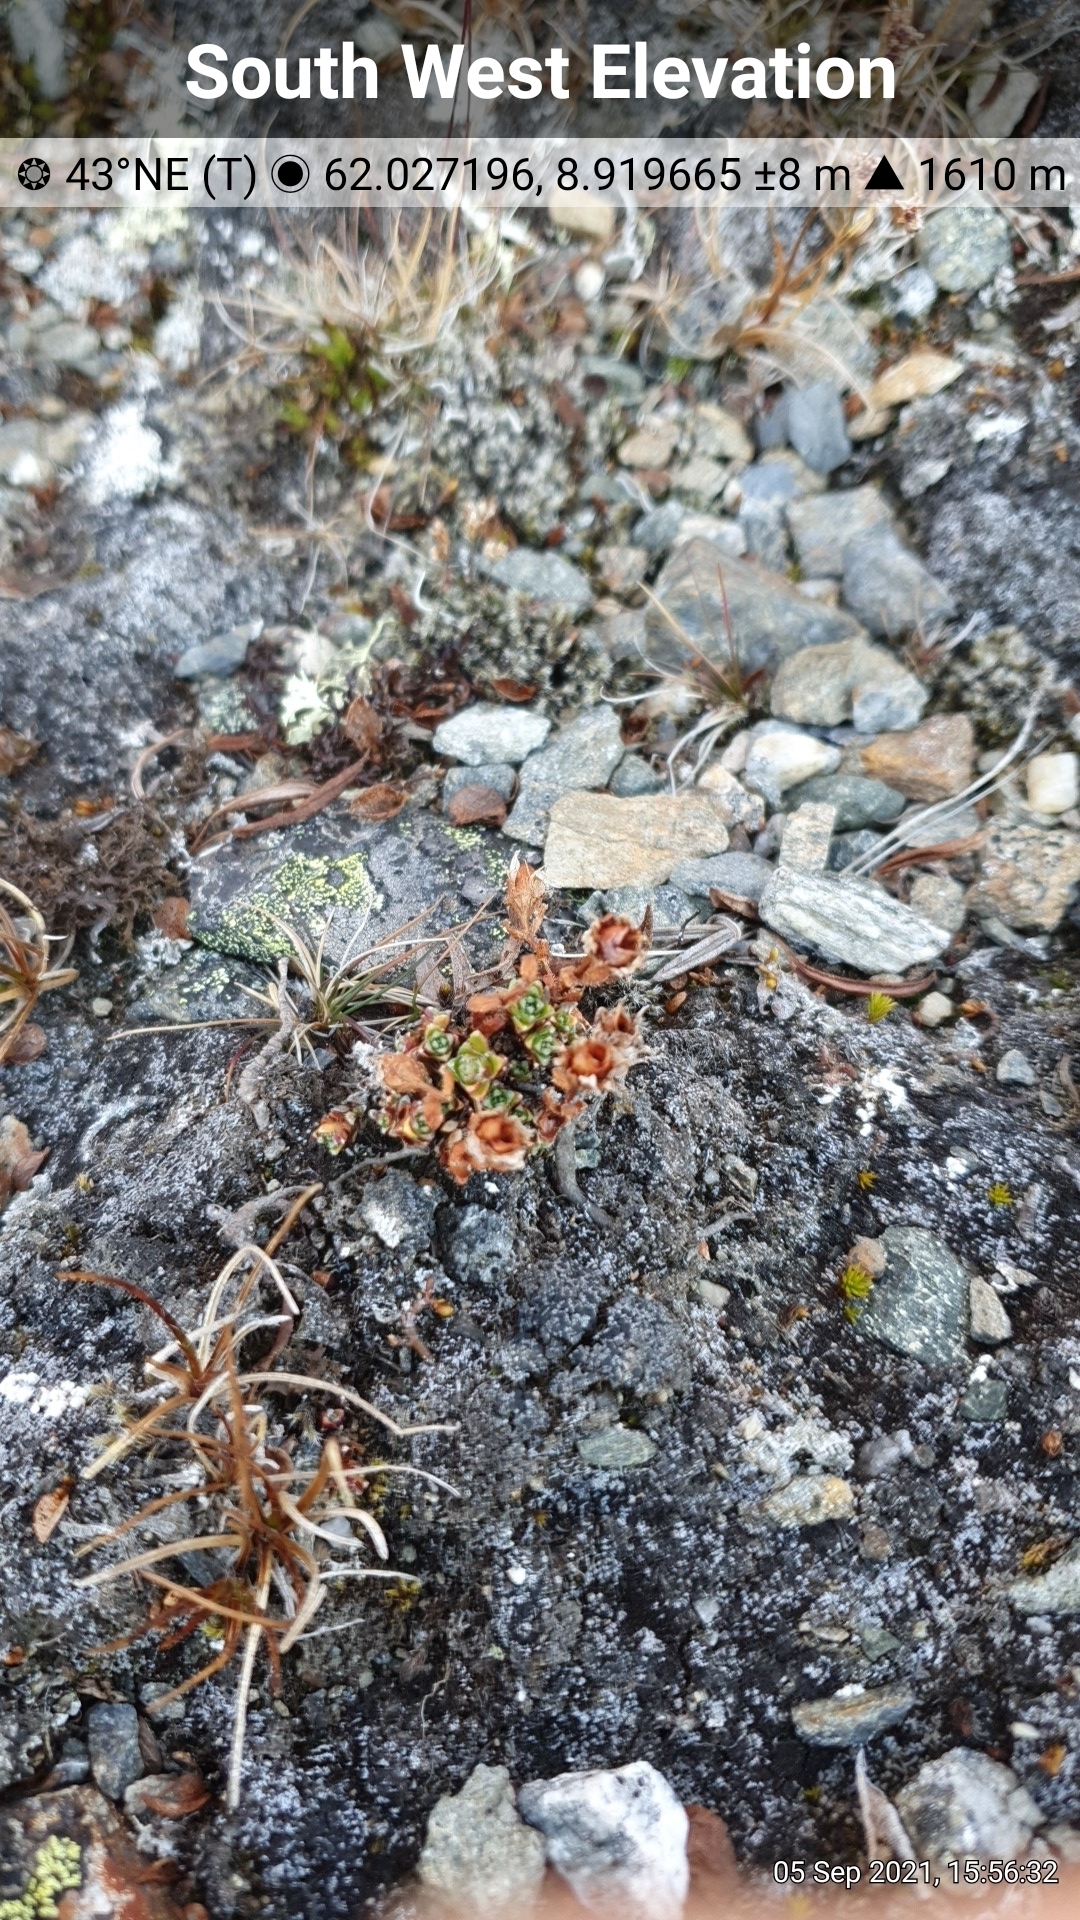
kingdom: Plantae
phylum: Tracheophyta
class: Magnoliopsida
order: Saxifragales
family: Saxifragaceae
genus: Saxifraga
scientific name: Saxifraga oppositifolia
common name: Purple saxifrage
